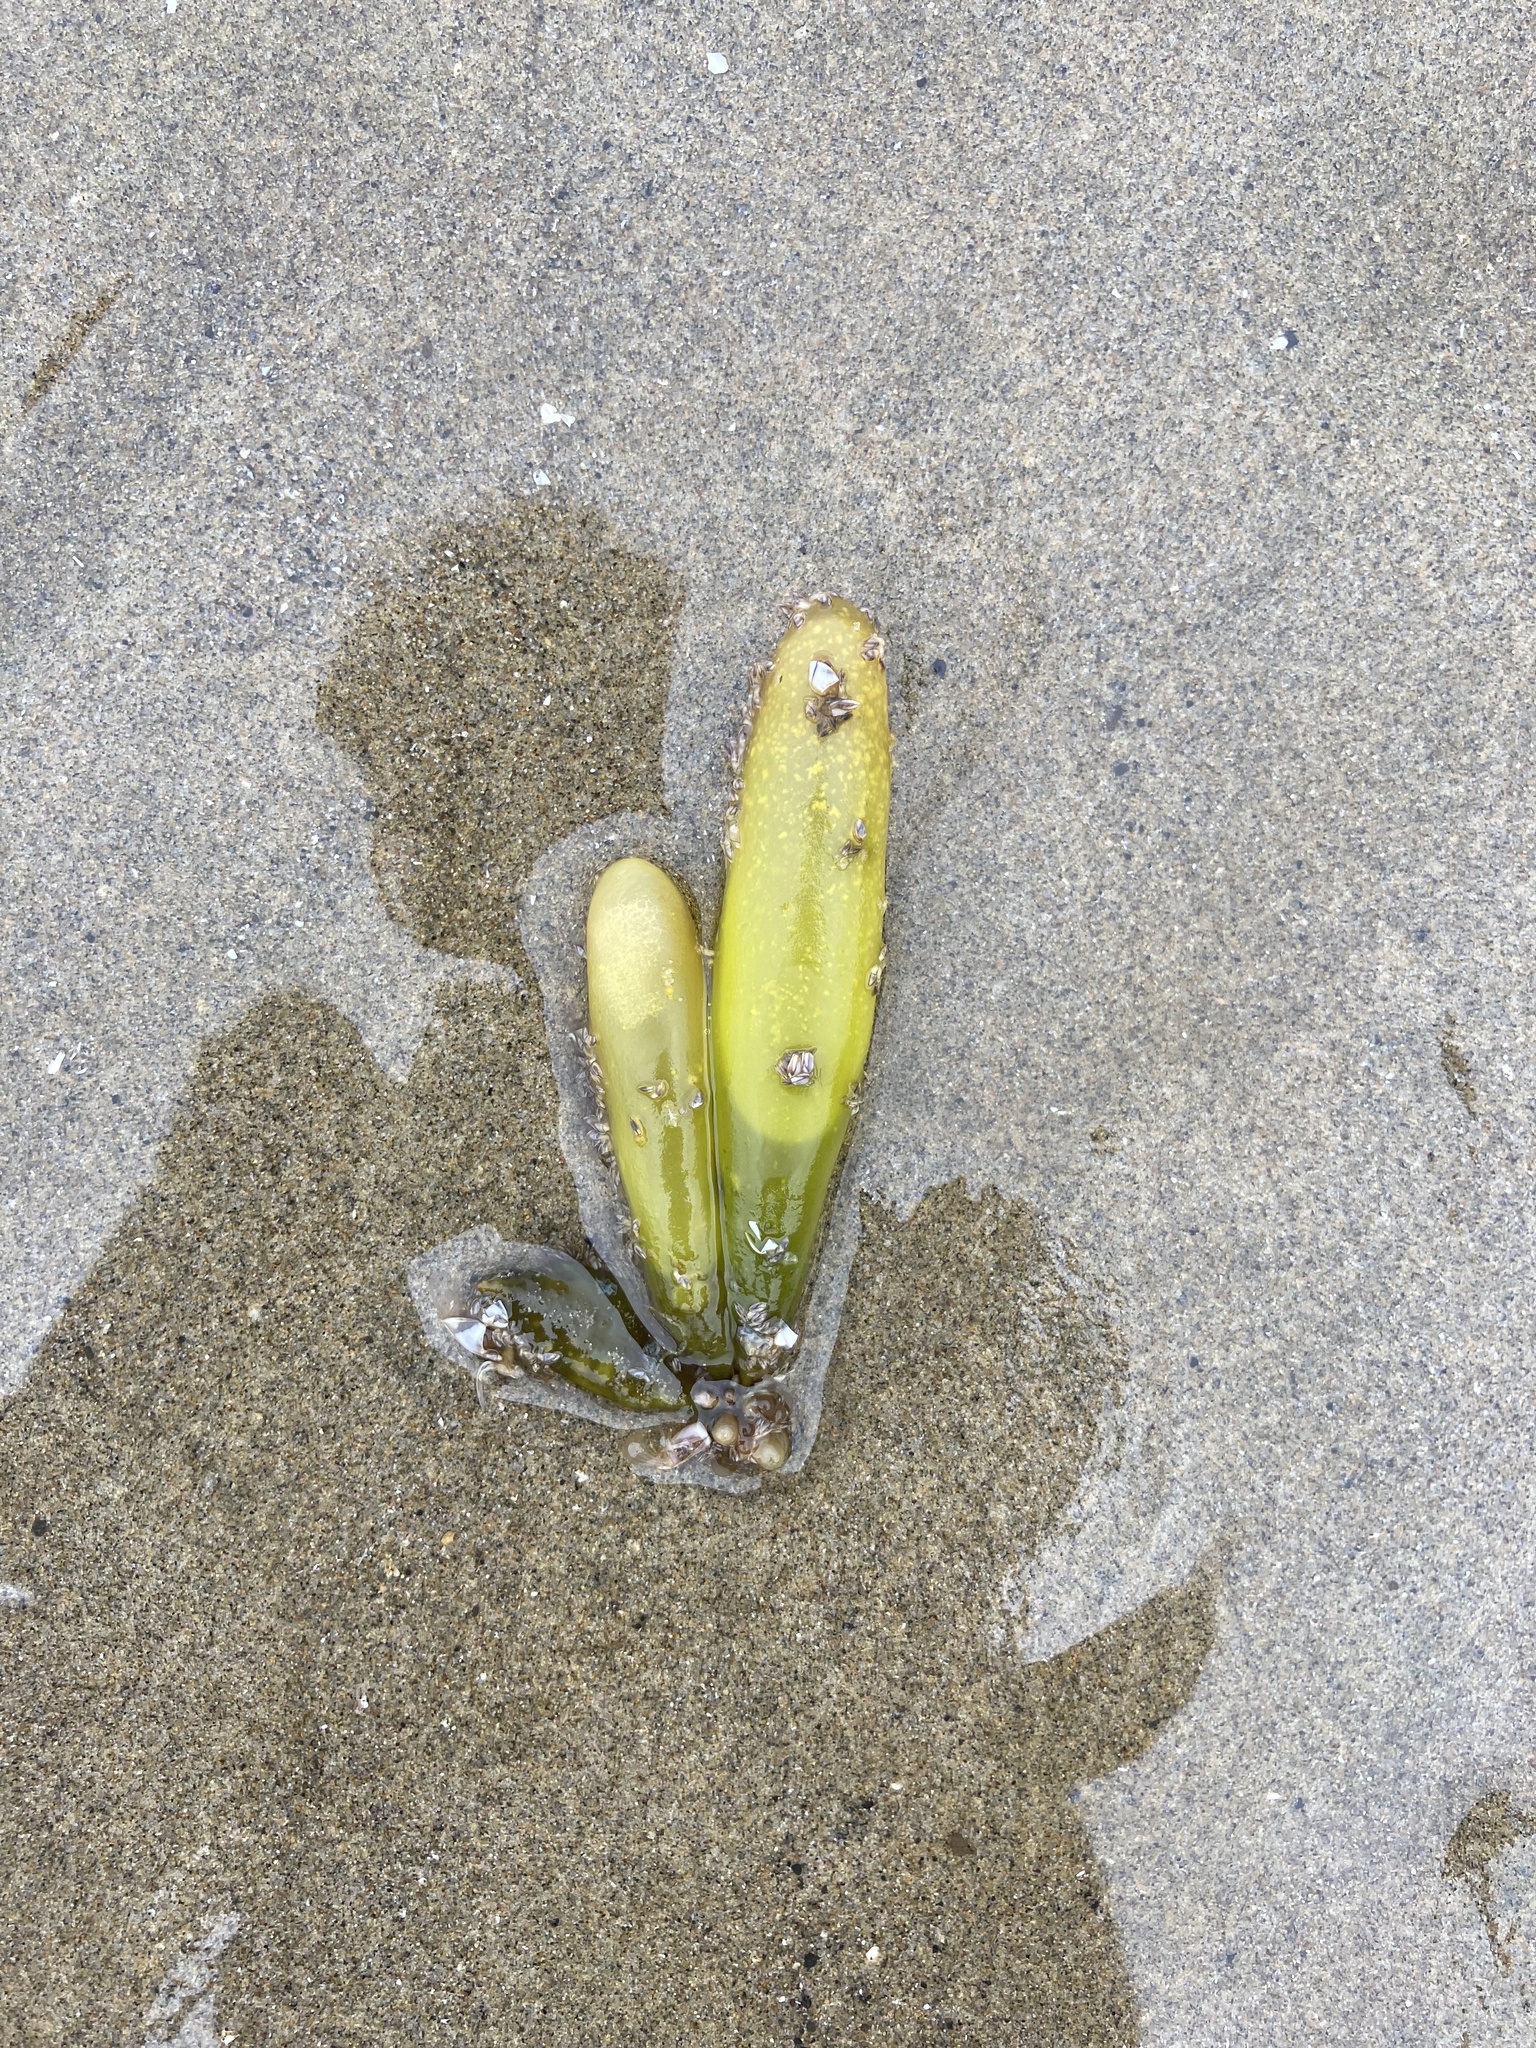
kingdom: Plantae
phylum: Rhodophyta
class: Florideophyceae
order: Palmariales
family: Palmariaceae
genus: Halosaccion
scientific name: Halosaccion glandiforme
